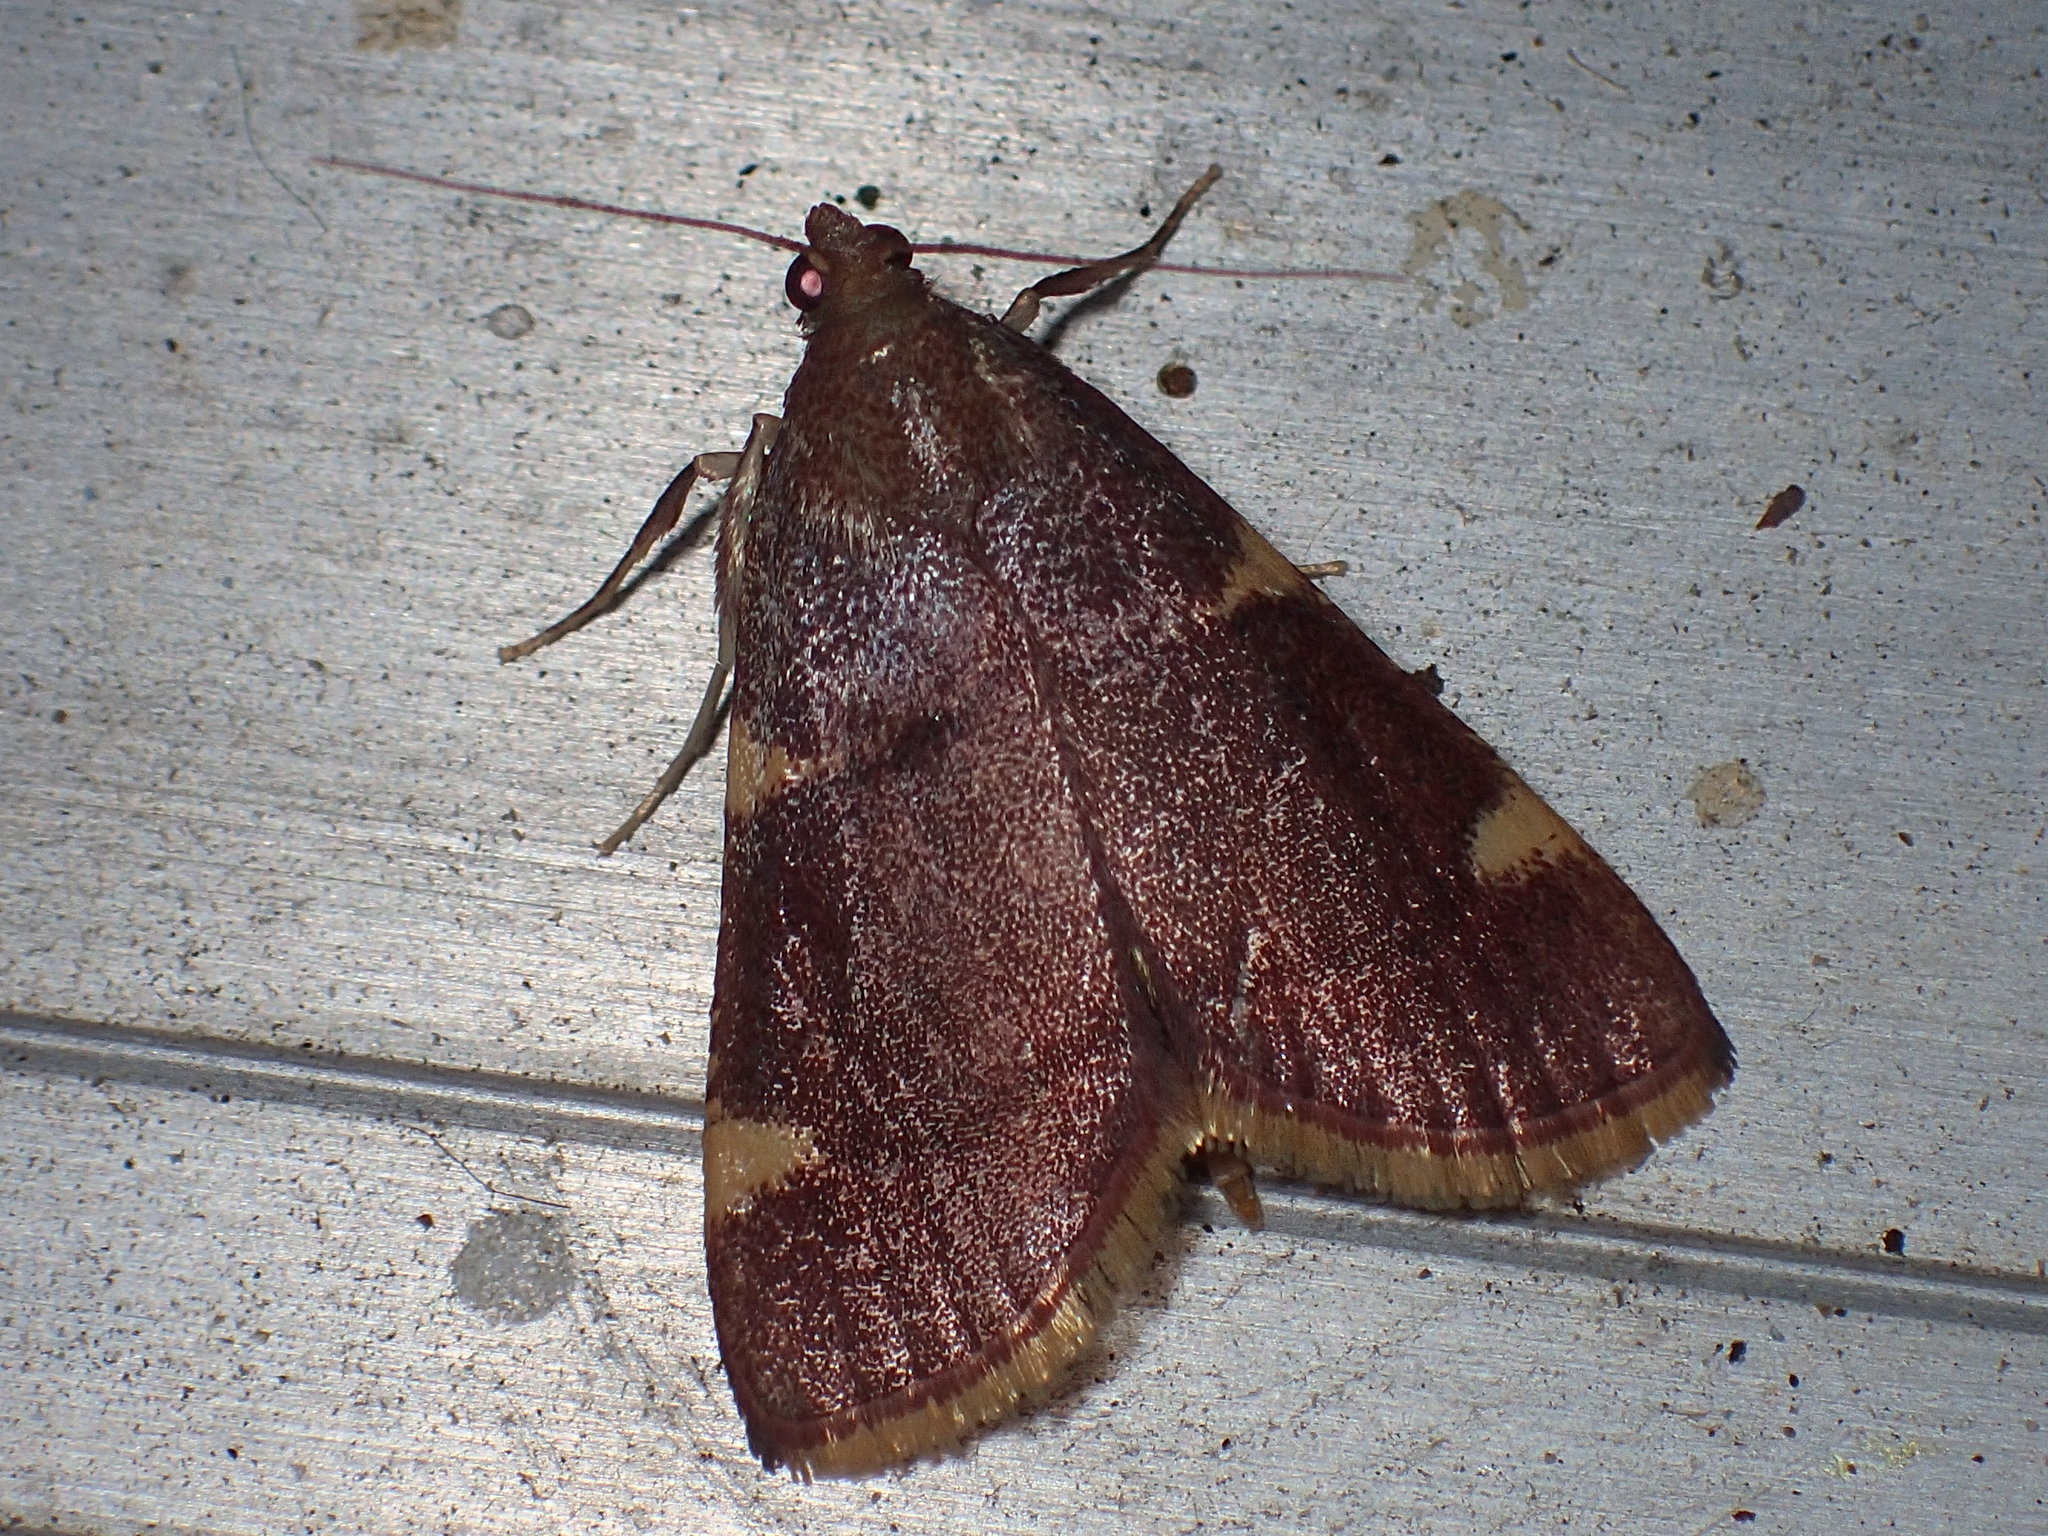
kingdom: Animalia
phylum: Arthropoda
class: Insecta
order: Lepidoptera
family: Pyralidae
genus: Hypsopygia
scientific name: Hypsopygia olinalis
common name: Yellow-fringed dolichomia moth
